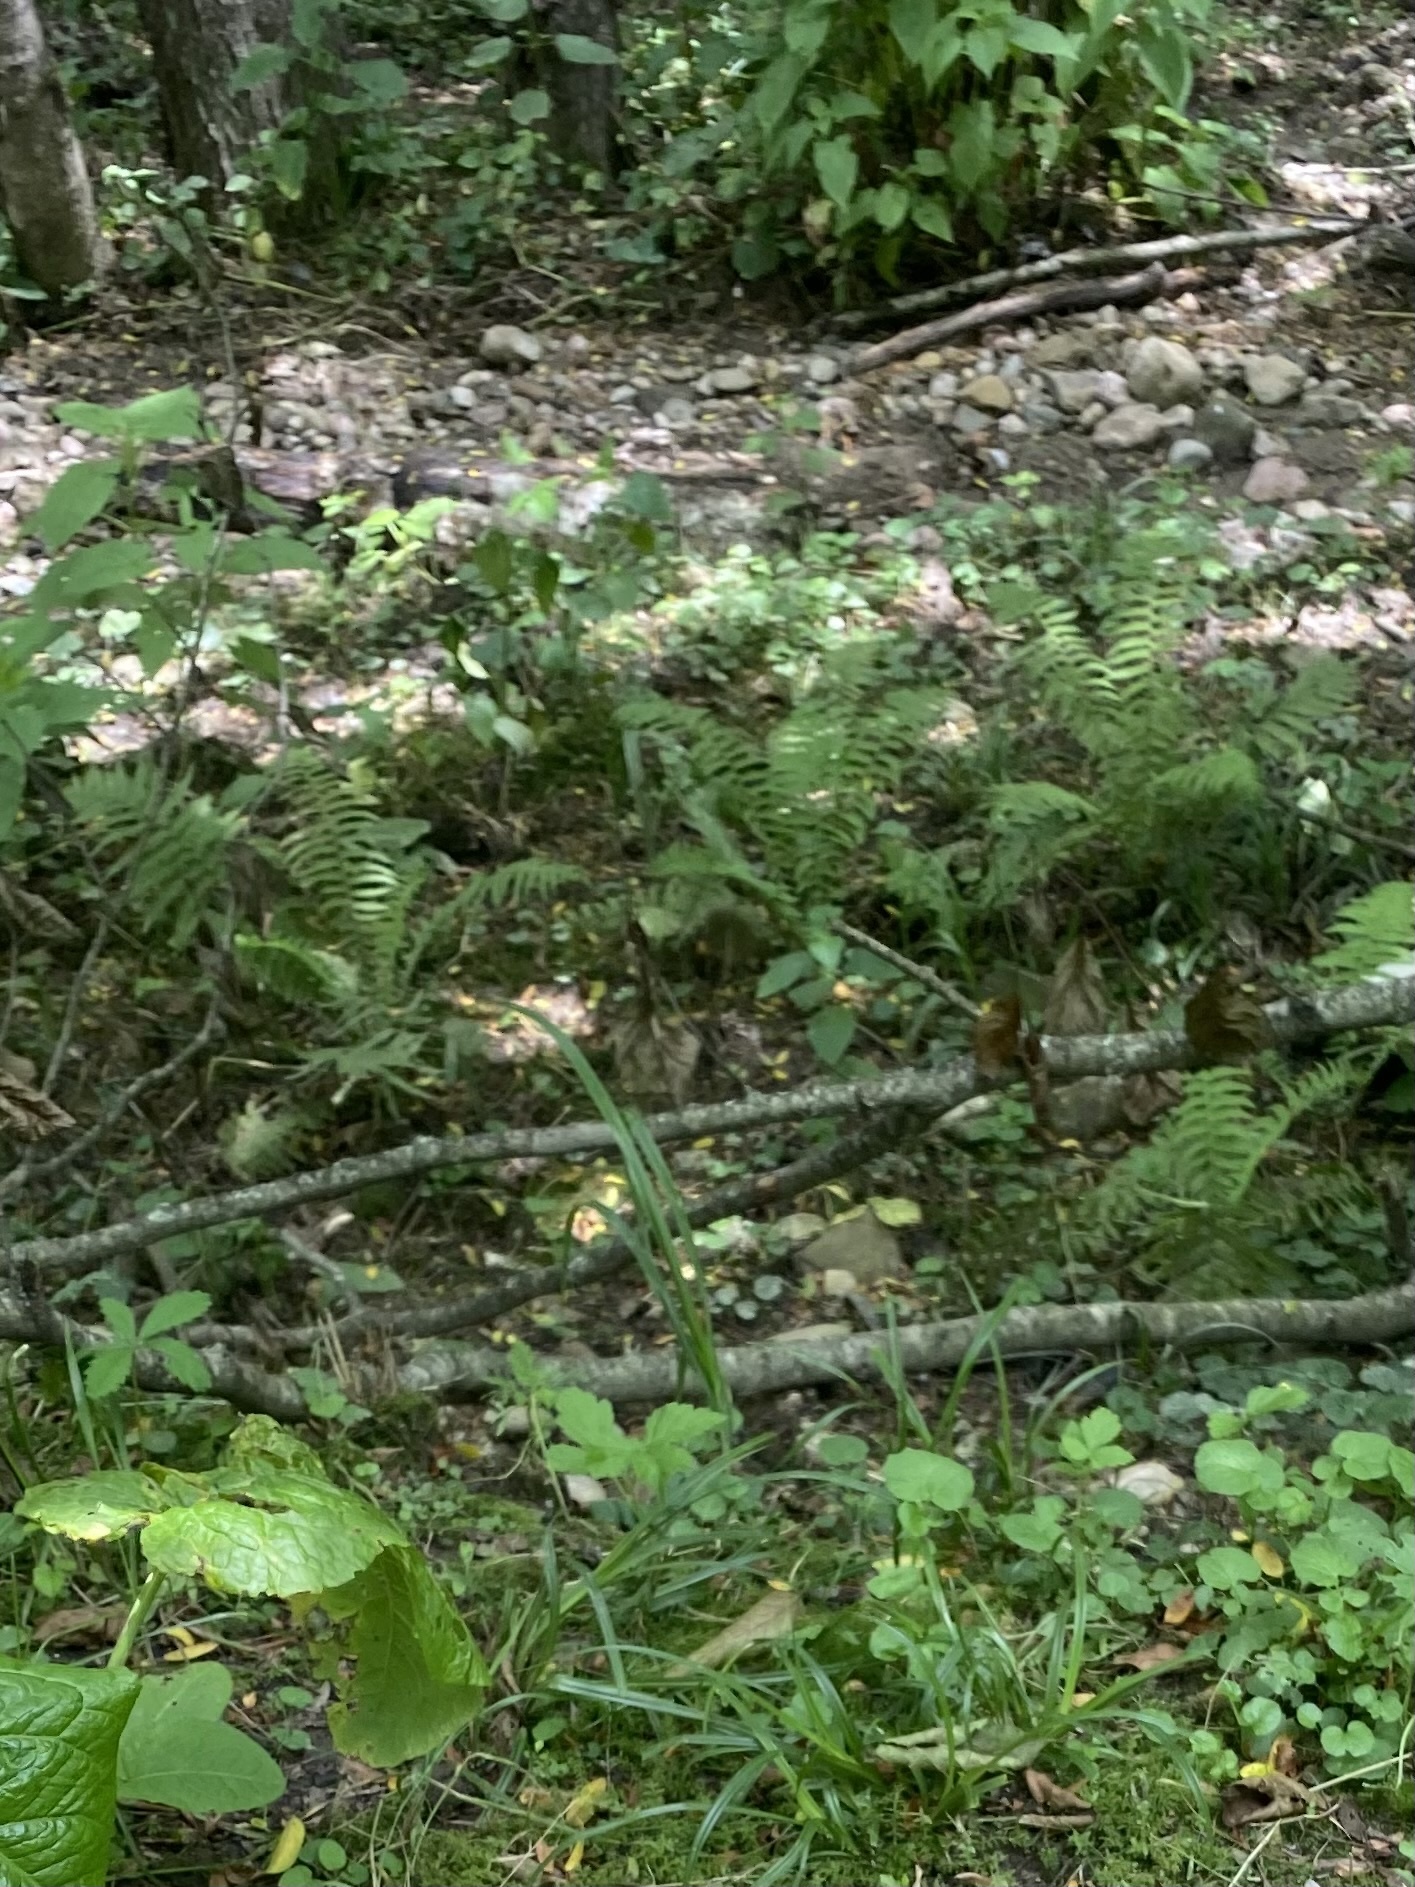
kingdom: Plantae
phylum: Tracheophyta
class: Polypodiopsida
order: Polypodiales
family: Onocleaceae
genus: Matteuccia
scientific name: Matteuccia struthiopteris
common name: Ostrich fern
